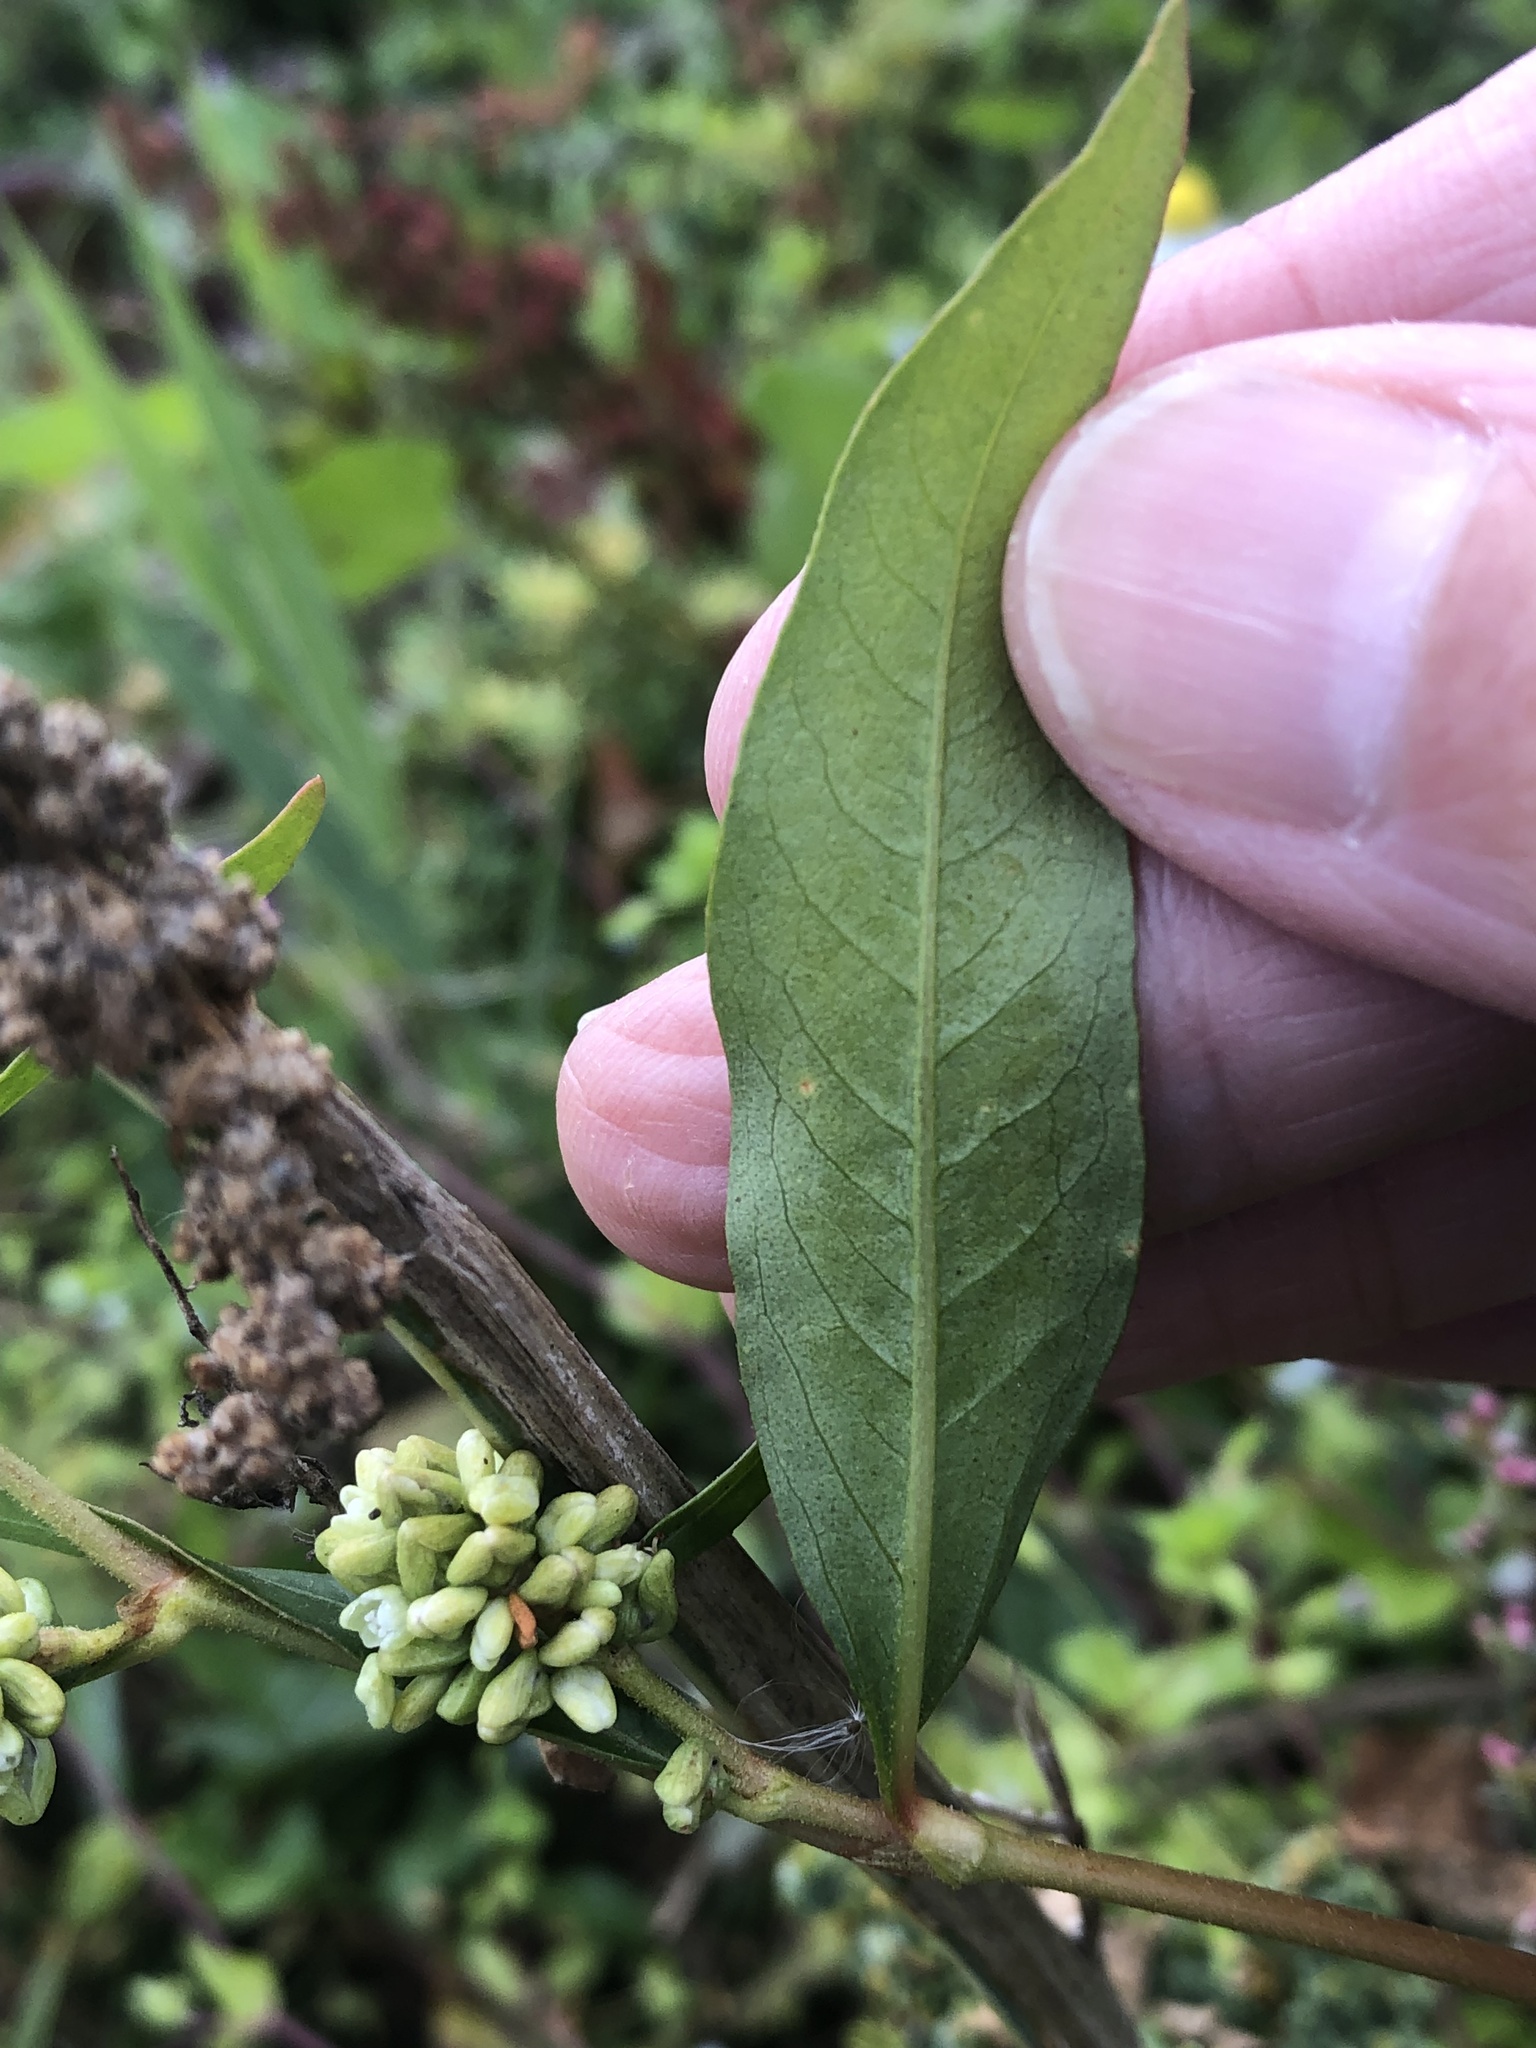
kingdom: Plantae
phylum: Tracheophyta
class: Magnoliopsida
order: Caryophyllales
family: Polygonaceae
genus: Persicaria
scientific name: Persicaria lapathifolia
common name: Curlytop knotweed
